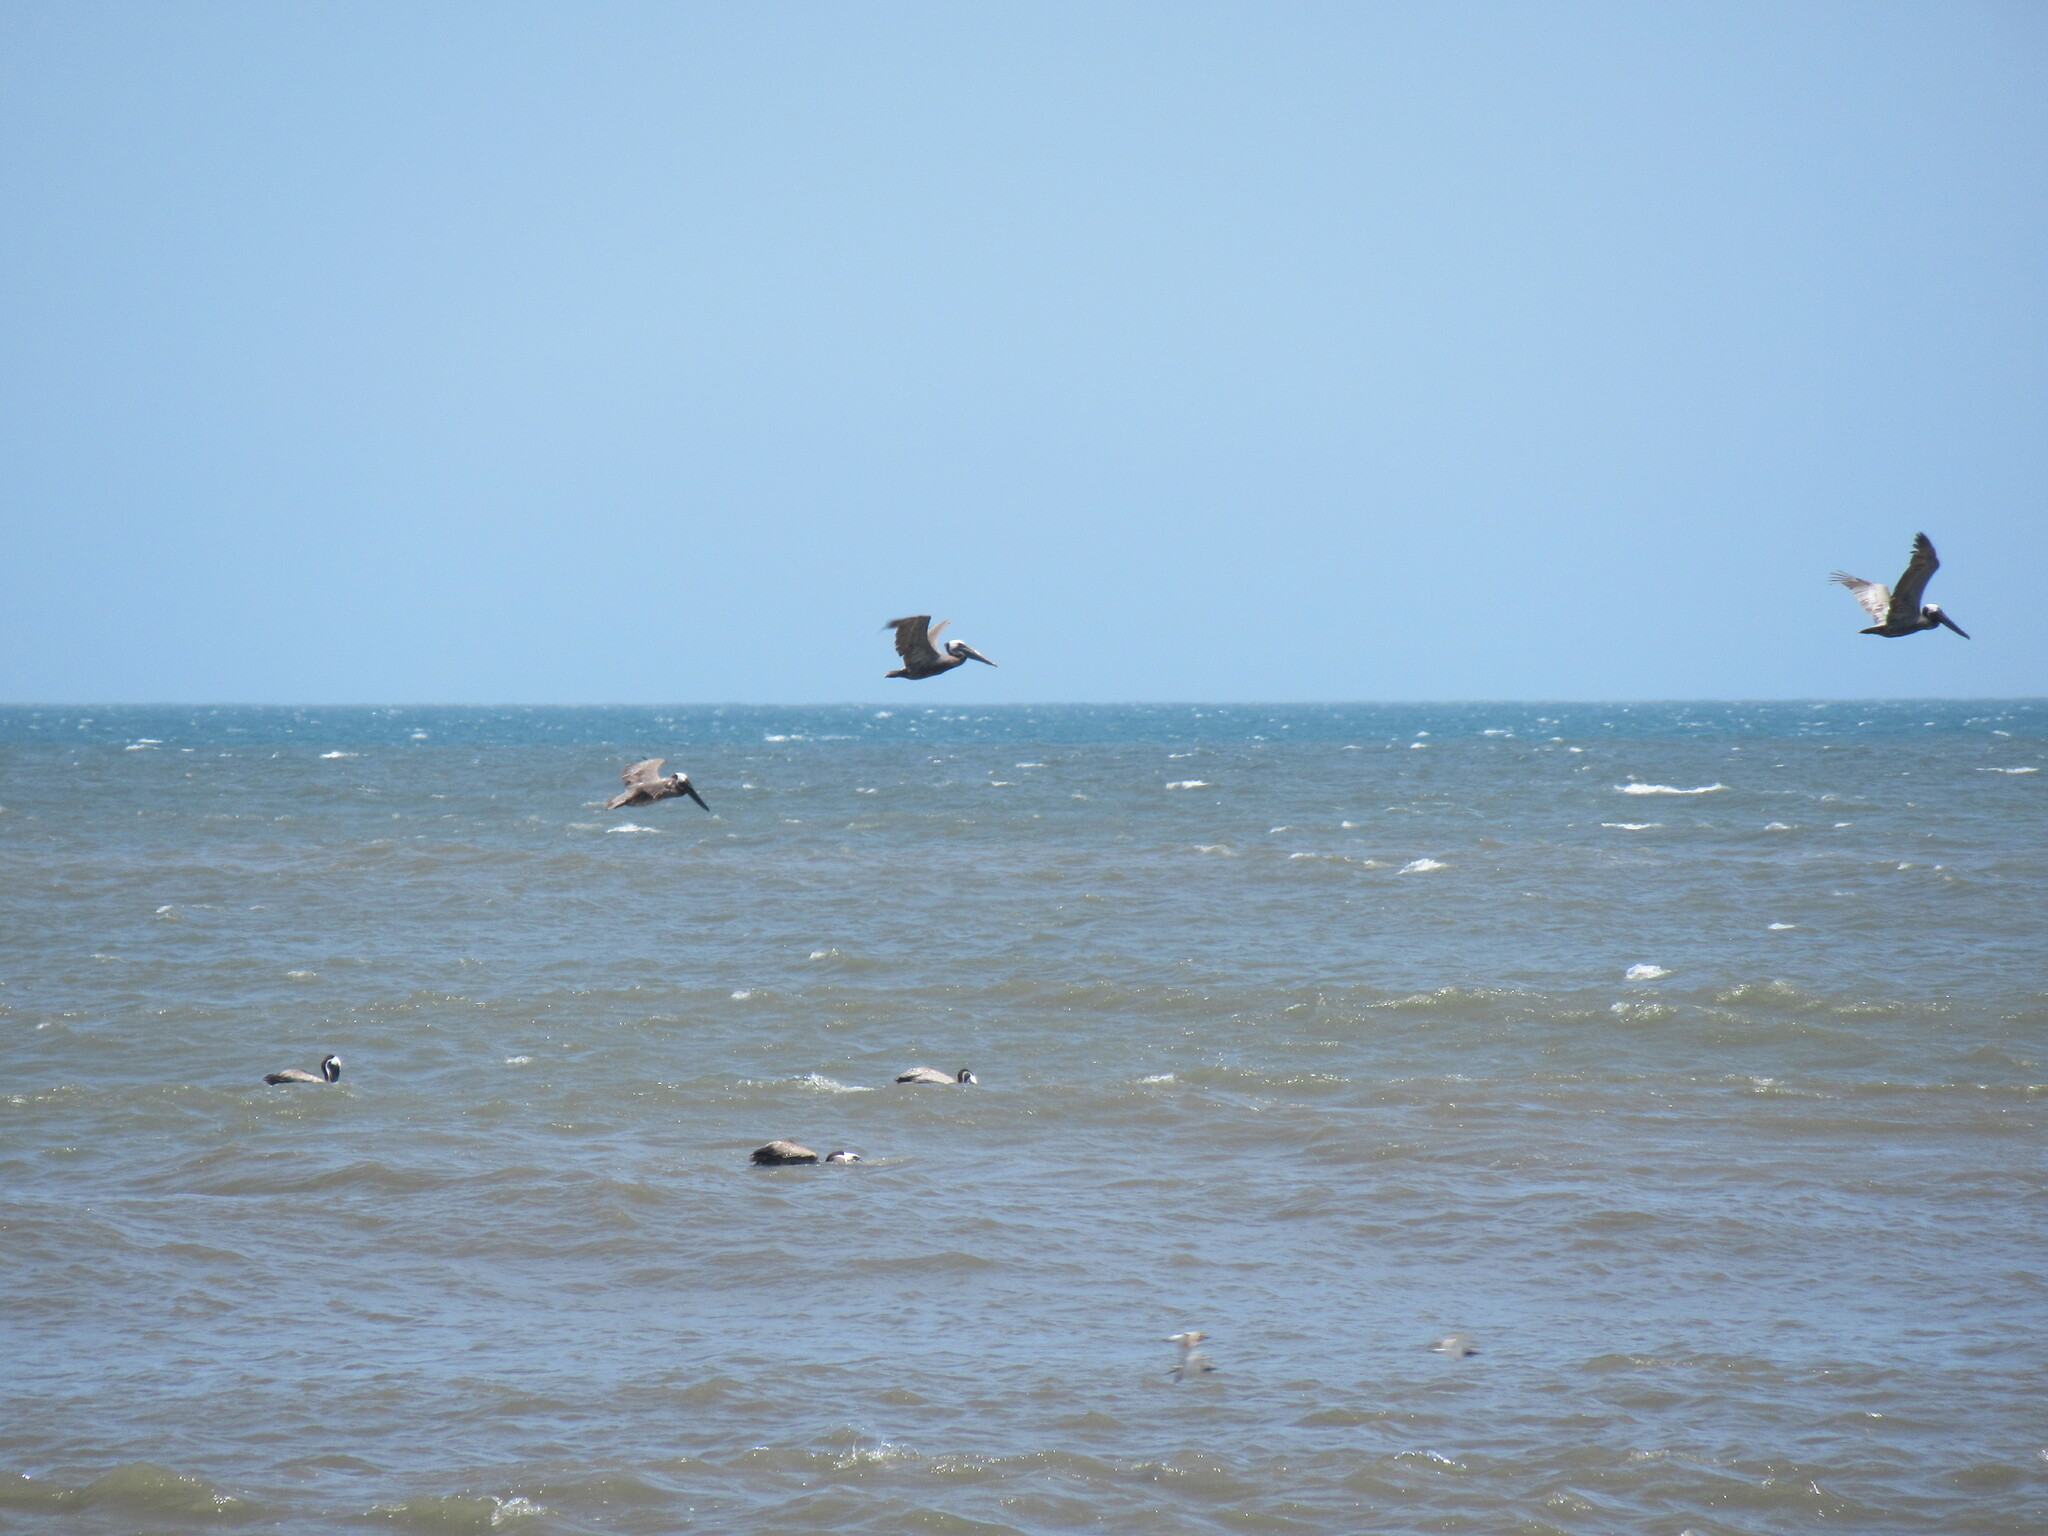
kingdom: Animalia
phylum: Chordata
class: Aves
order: Pelecaniformes
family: Pelecanidae
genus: Pelecanus
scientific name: Pelecanus occidentalis
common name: Brown pelican
